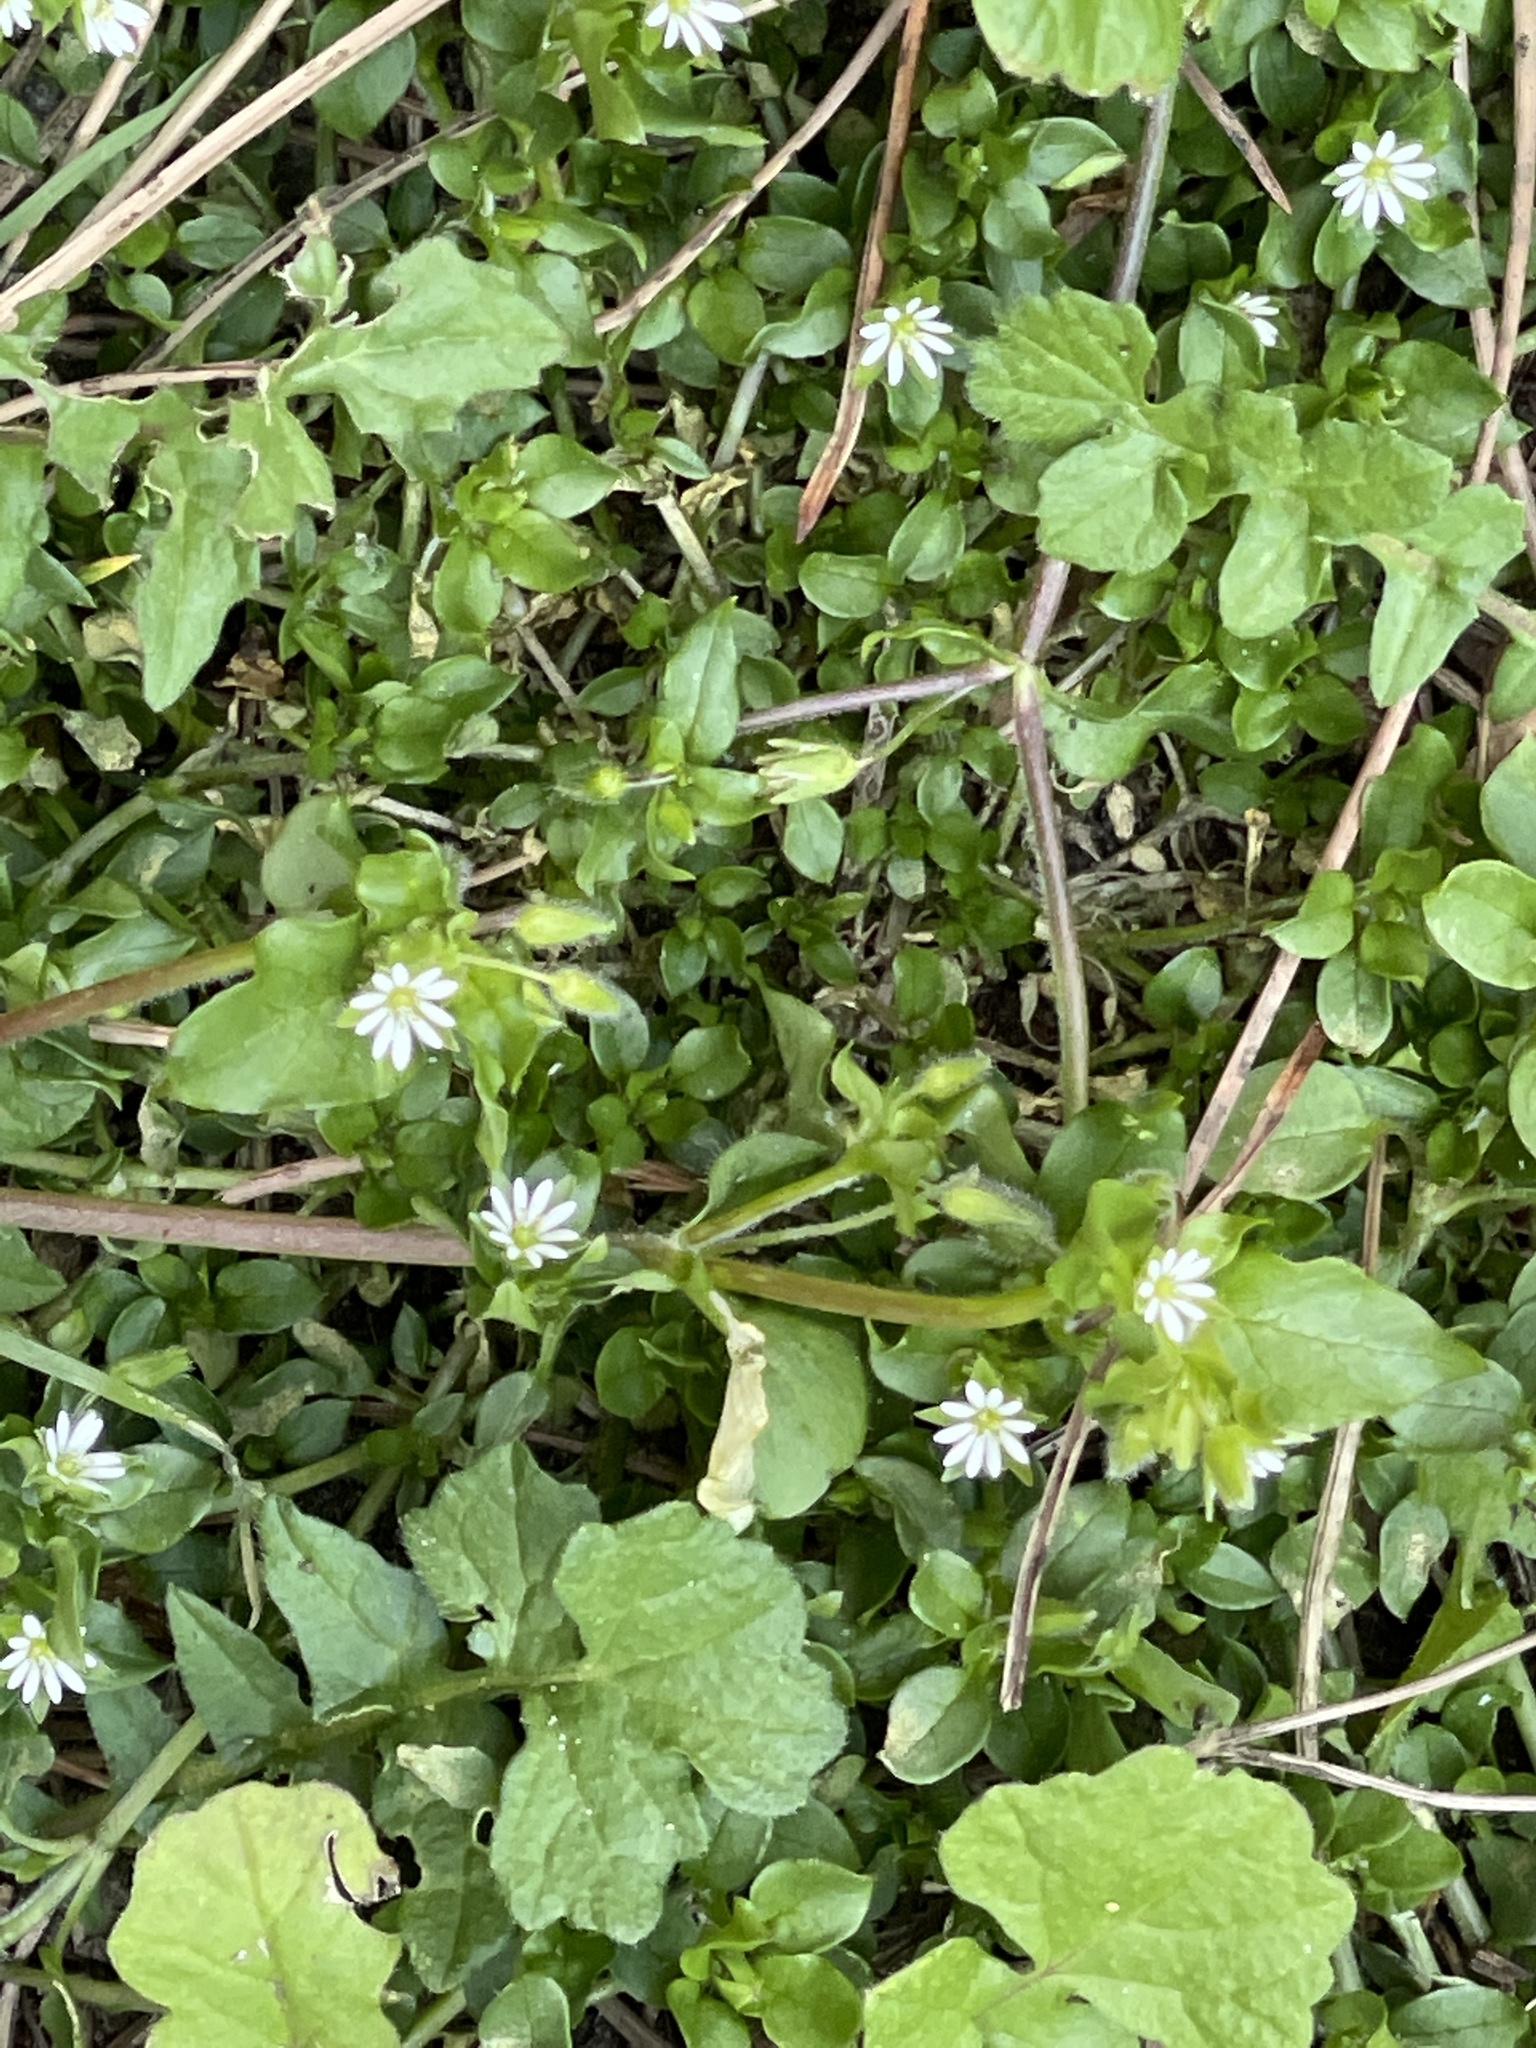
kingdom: Plantae
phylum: Tracheophyta
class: Magnoliopsida
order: Caryophyllales
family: Caryophyllaceae
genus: Stellaria
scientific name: Stellaria media
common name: Common chickweed
